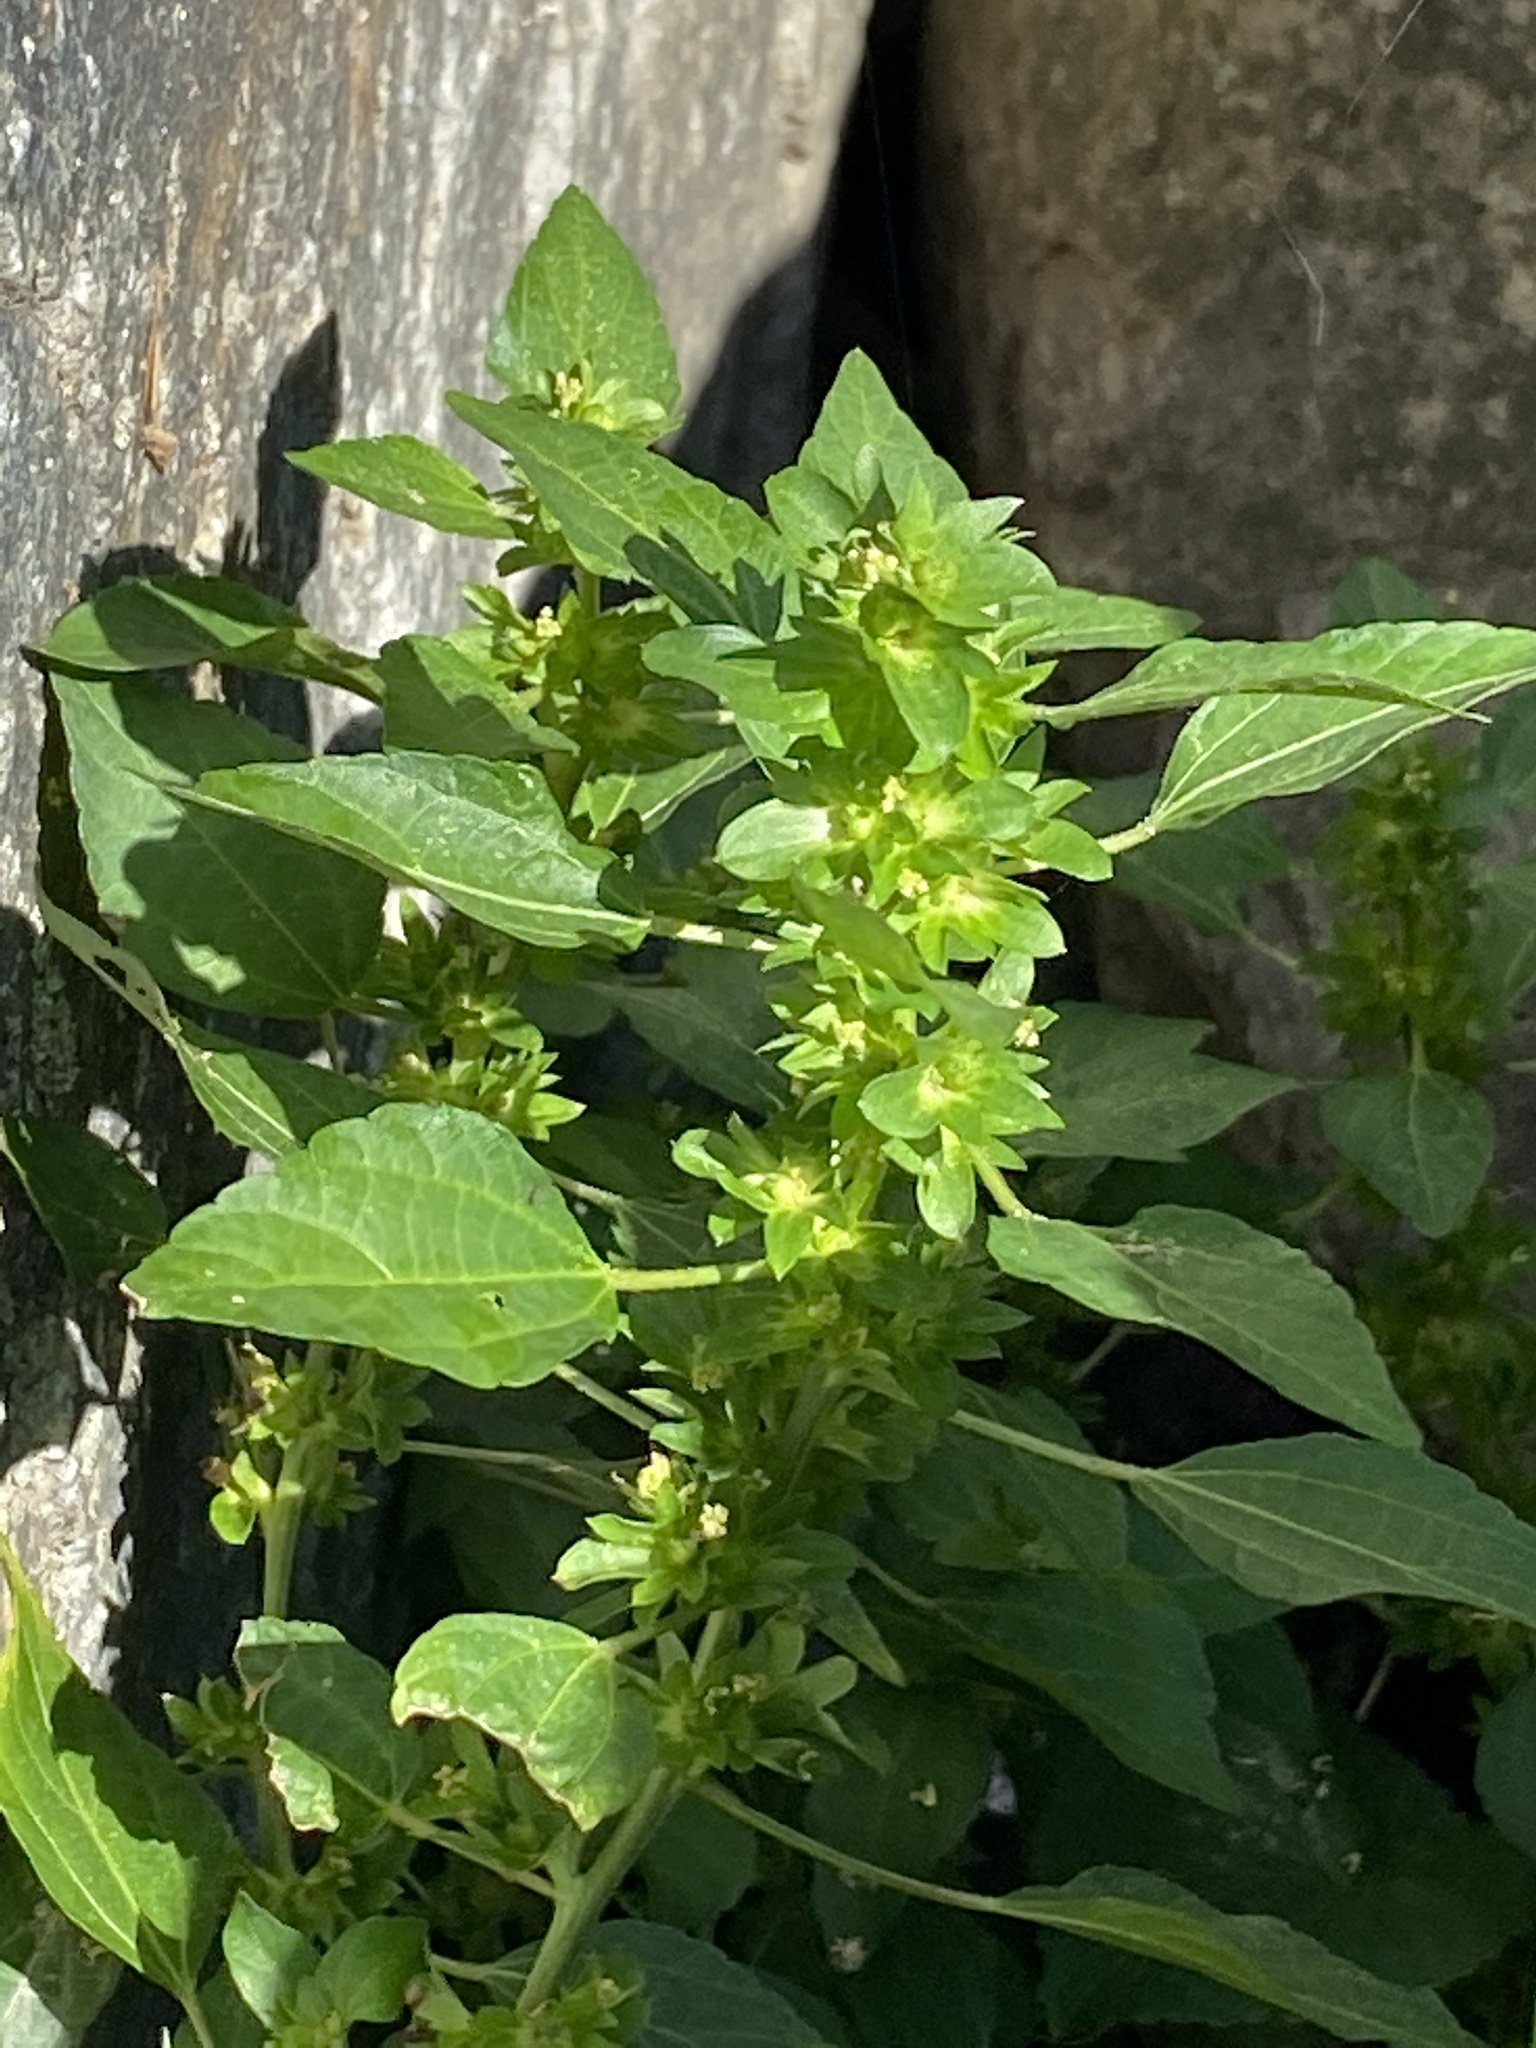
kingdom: Plantae
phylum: Tracheophyta
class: Magnoliopsida
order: Malpighiales
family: Euphorbiaceae
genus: Acalypha
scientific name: Acalypha rhomboidea
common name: Rhombic copperleaf
